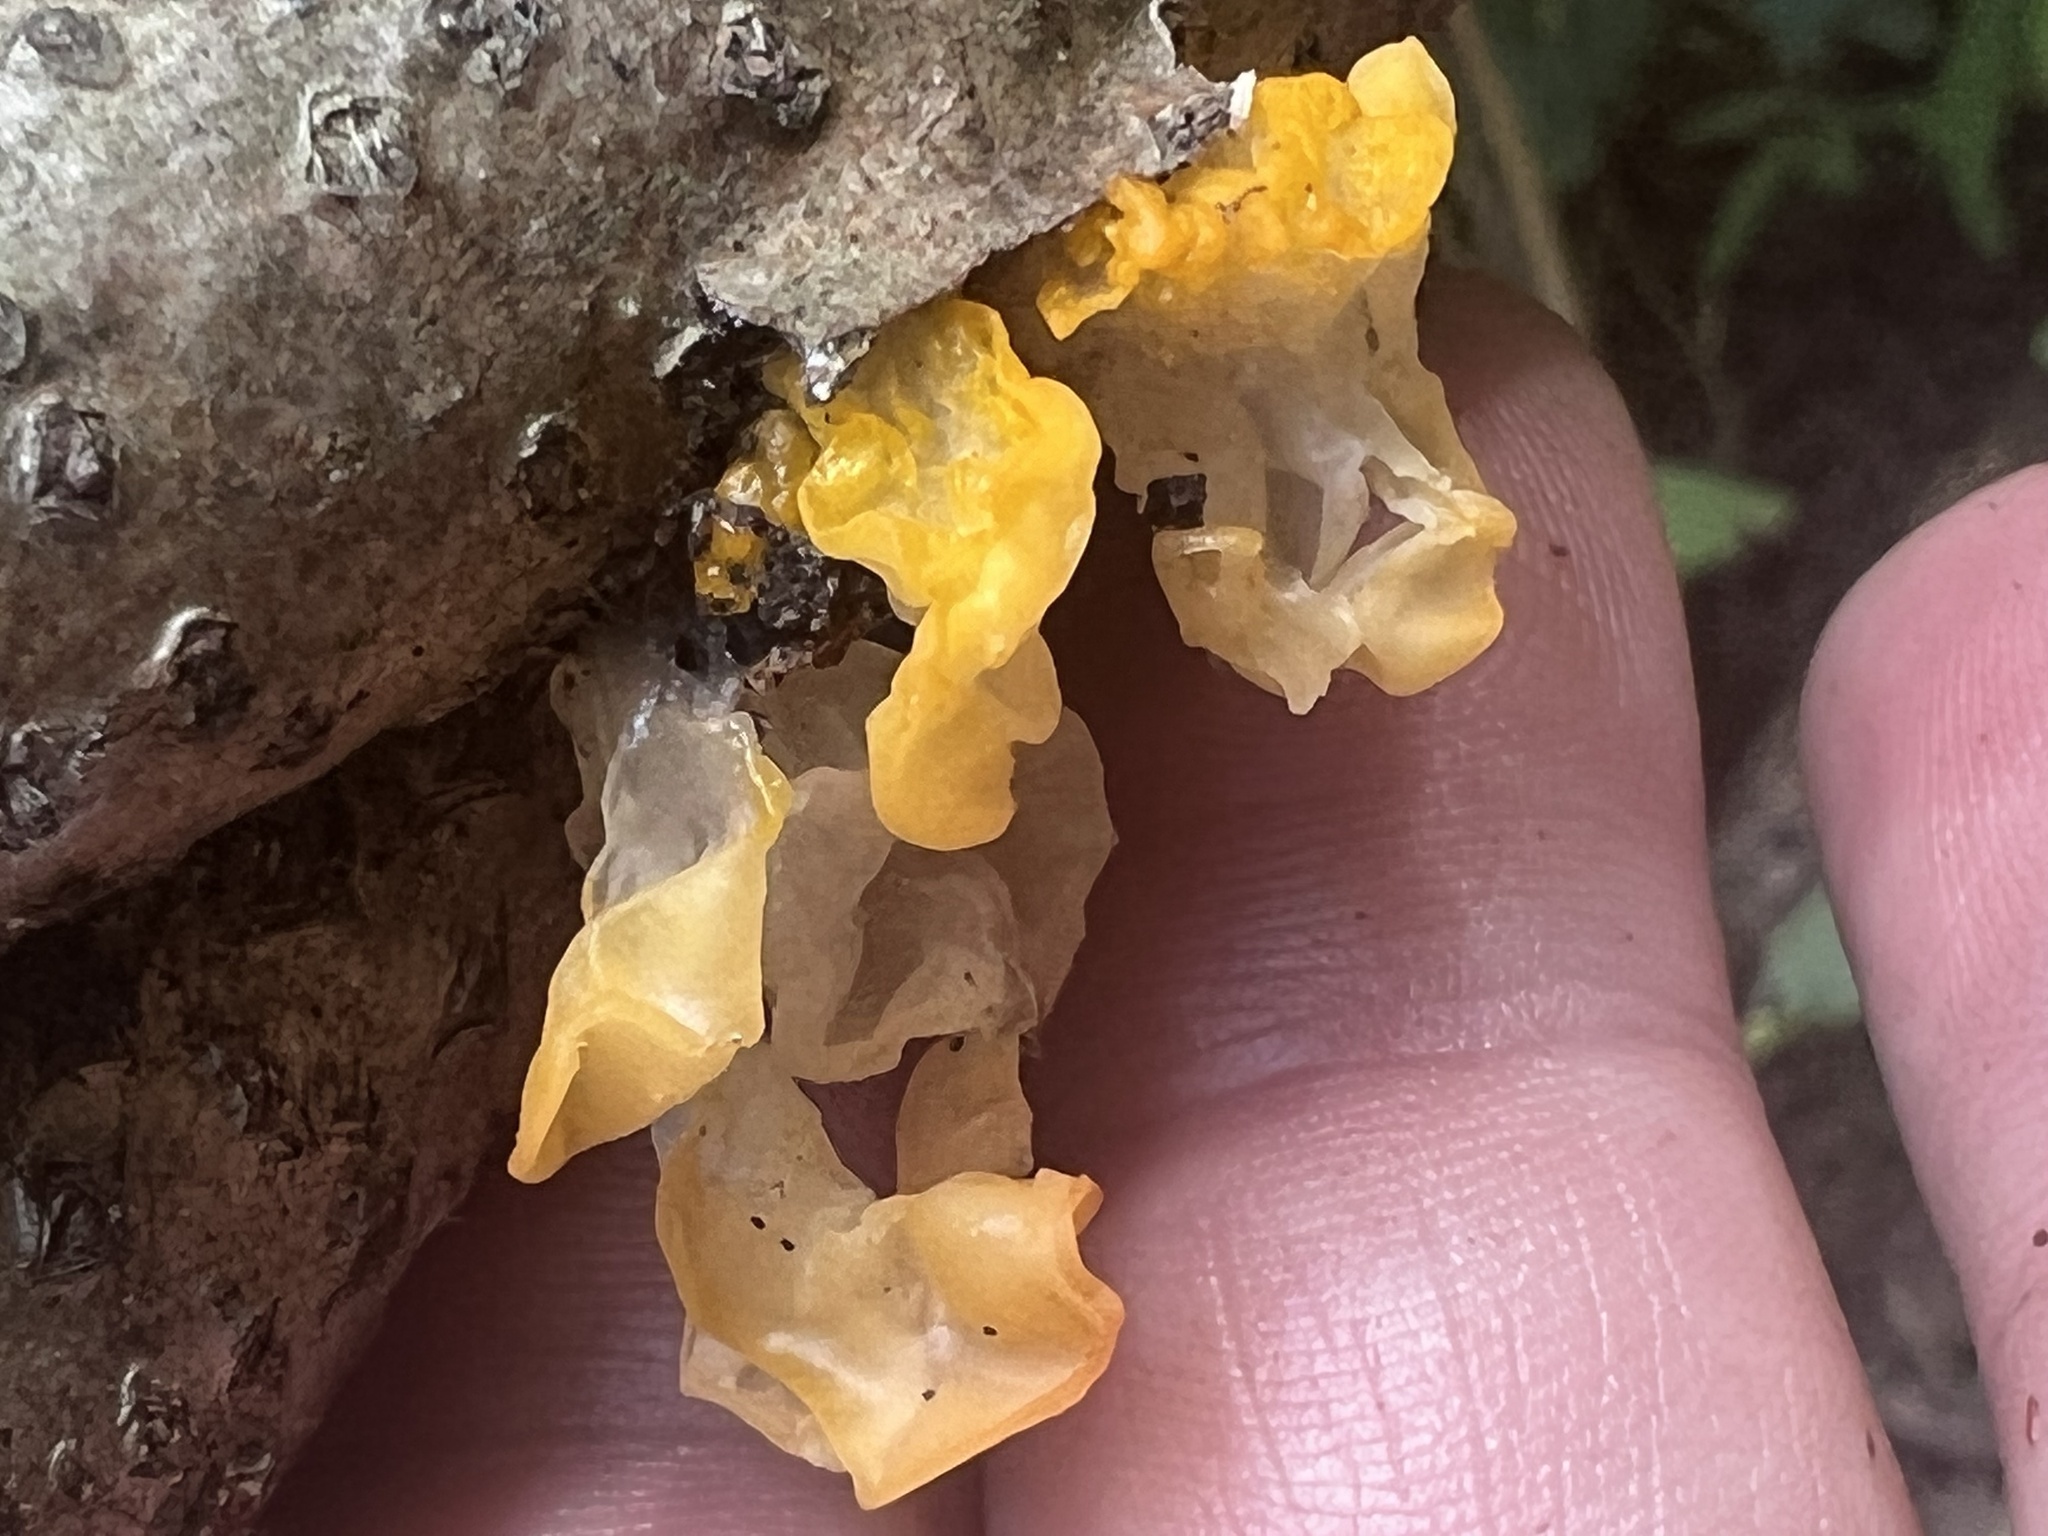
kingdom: Fungi
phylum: Basidiomycota
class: Tremellomycetes
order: Tremellales
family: Tremellaceae
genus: Tremella
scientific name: Tremella mesenterica
